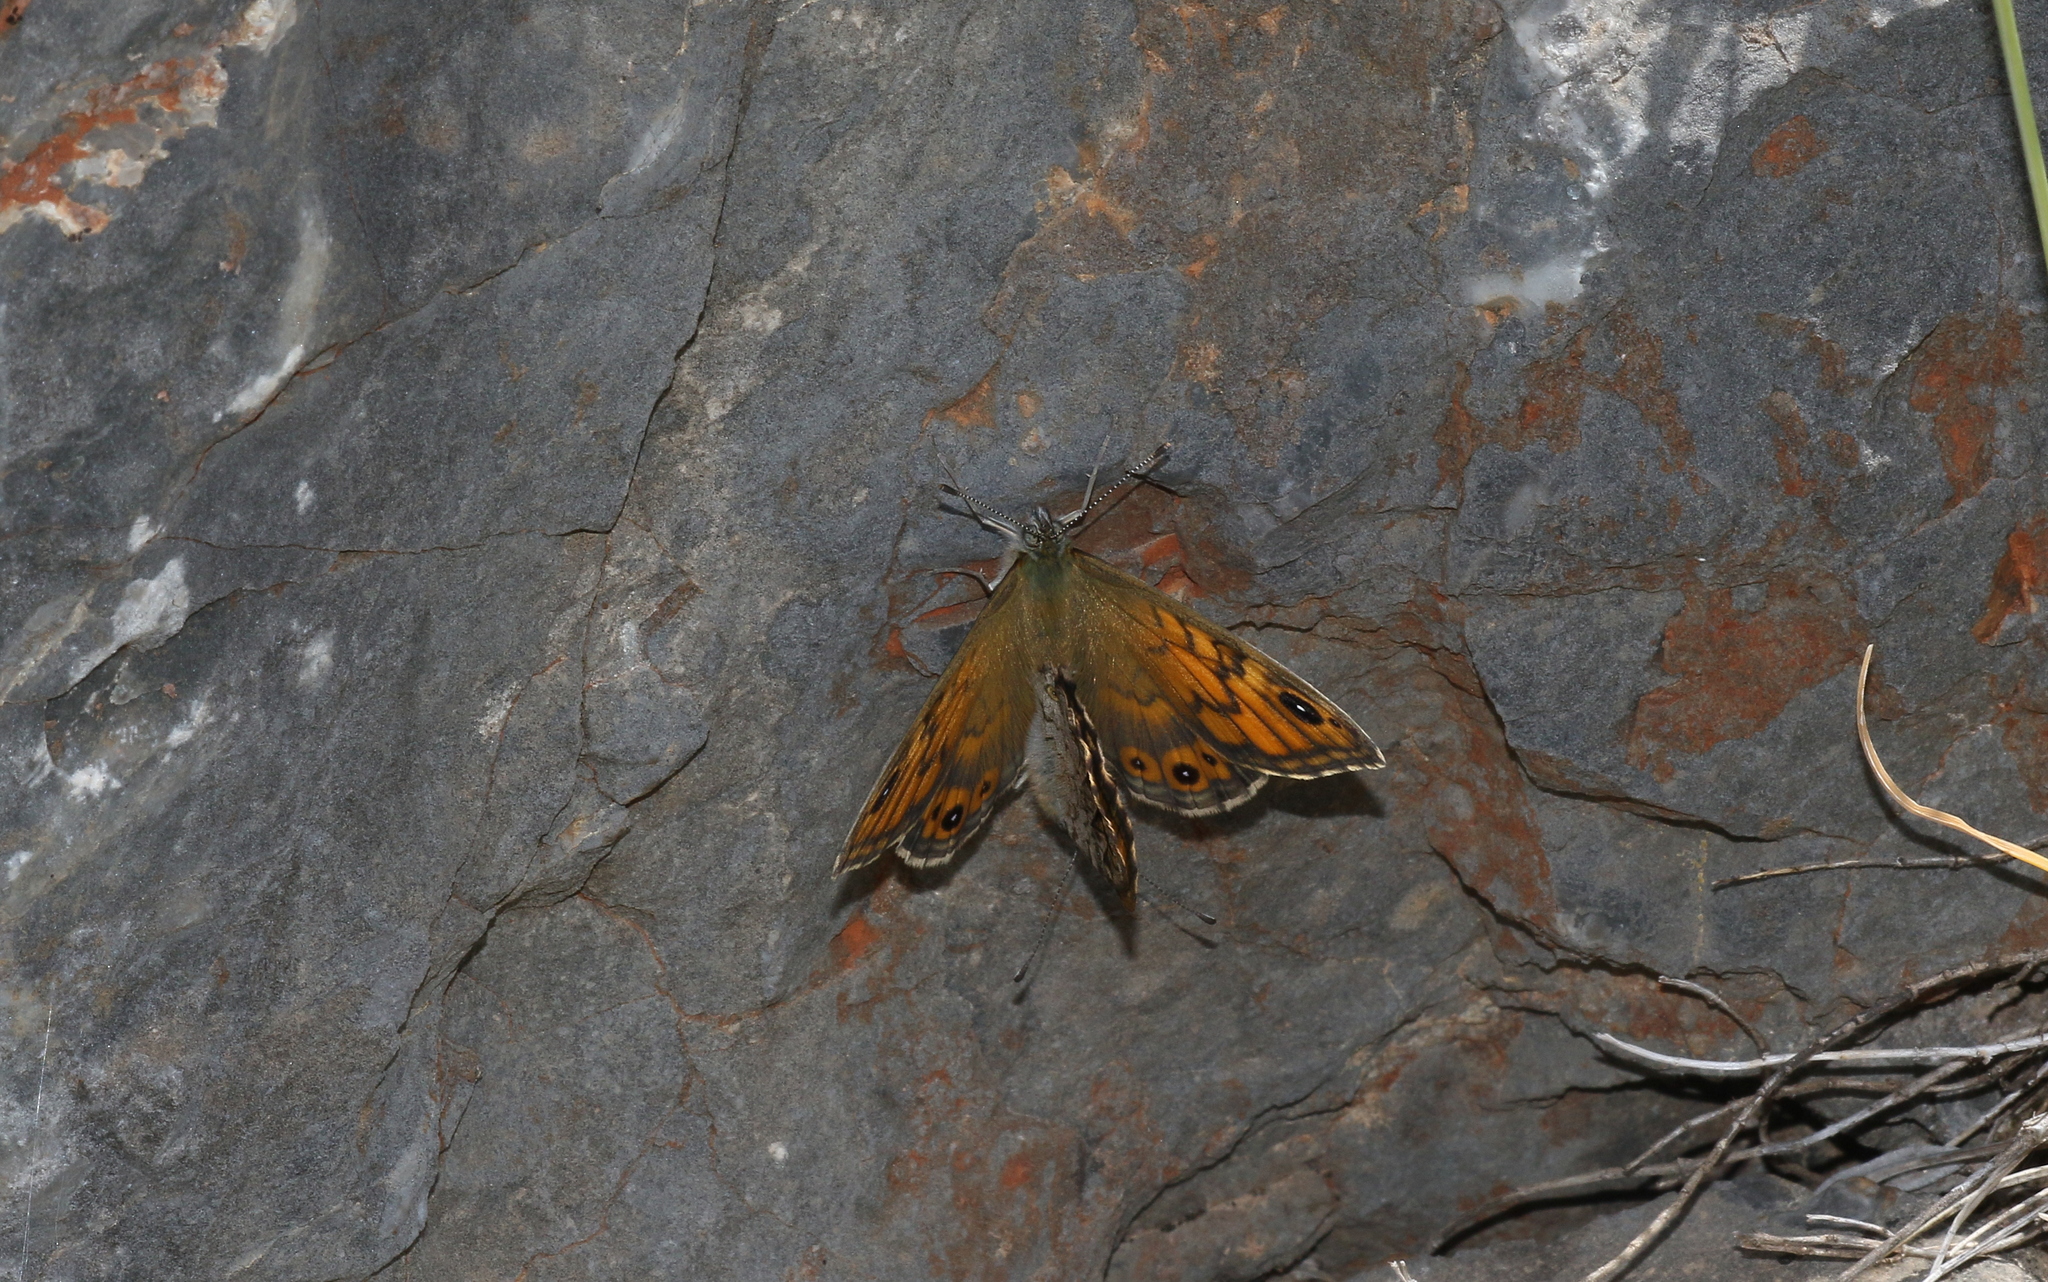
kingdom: Animalia
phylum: Arthropoda
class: Insecta
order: Lepidoptera
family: Nymphalidae
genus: Pararge
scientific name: Pararge Lasiommata megera
